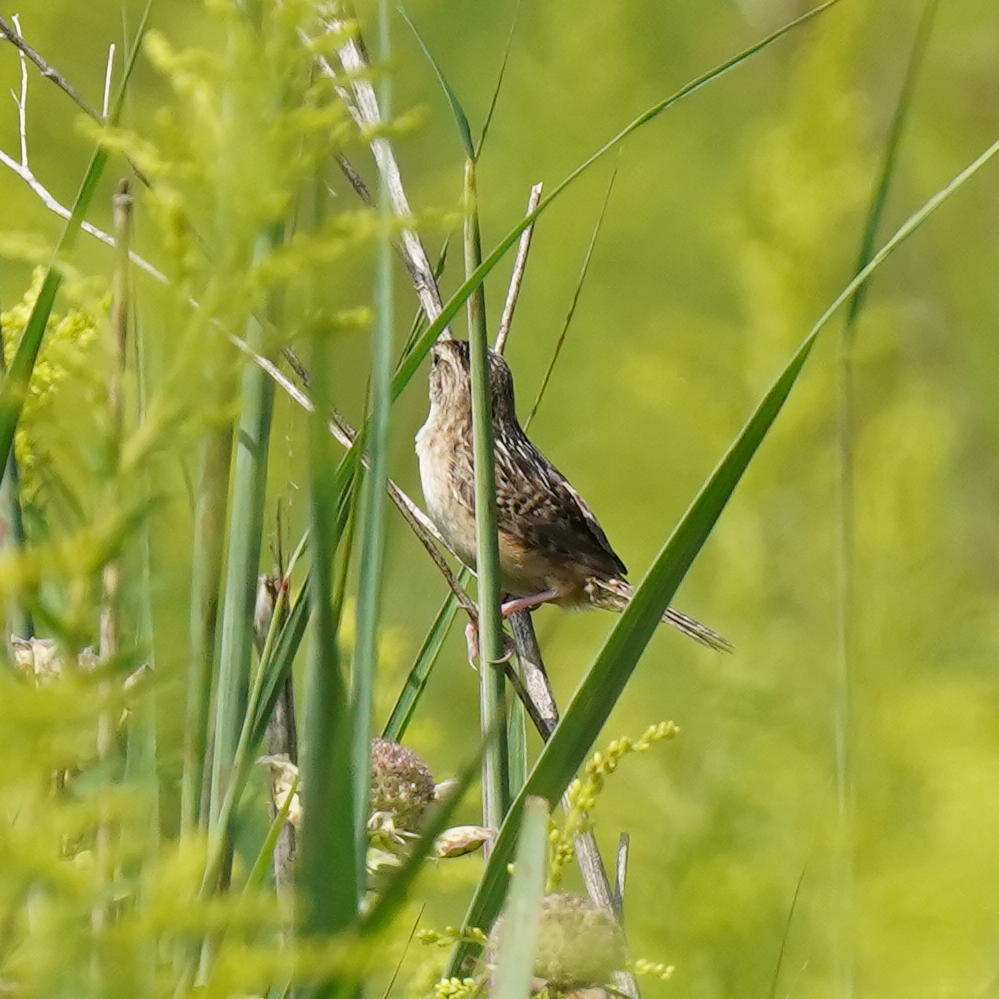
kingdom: Animalia
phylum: Chordata
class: Aves
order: Passeriformes
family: Troglodytidae
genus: Cistothorus
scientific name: Cistothorus platensis
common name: Sedge wren
